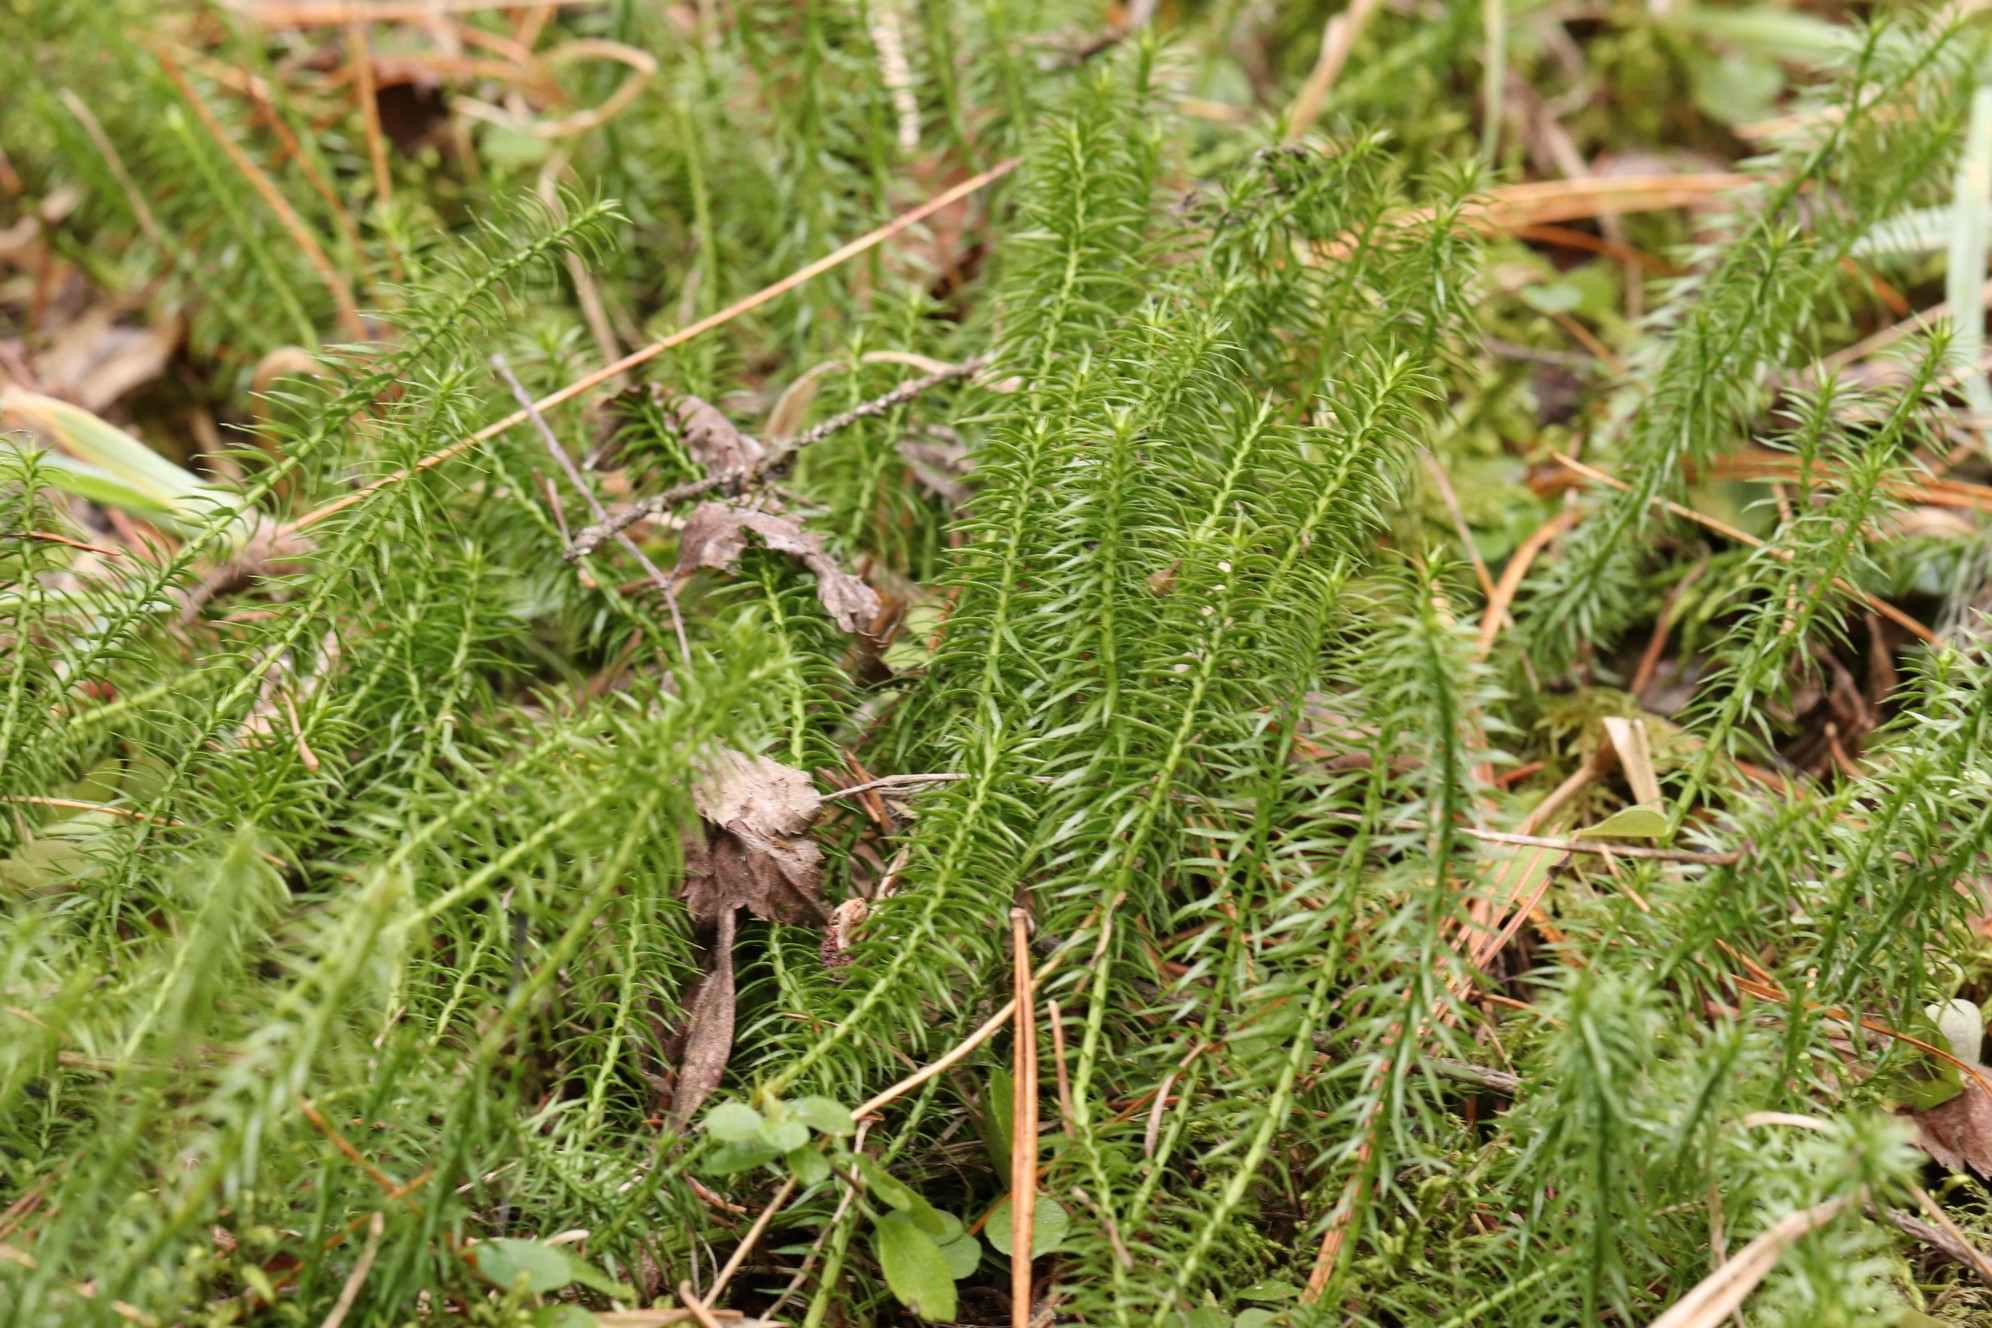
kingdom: Plantae
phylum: Tracheophyta
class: Lycopodiopsida
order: Lycopodiales
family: Lycopodiaceae
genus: Spinulum
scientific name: Spinulum annotinum
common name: Interrupted club-moss
